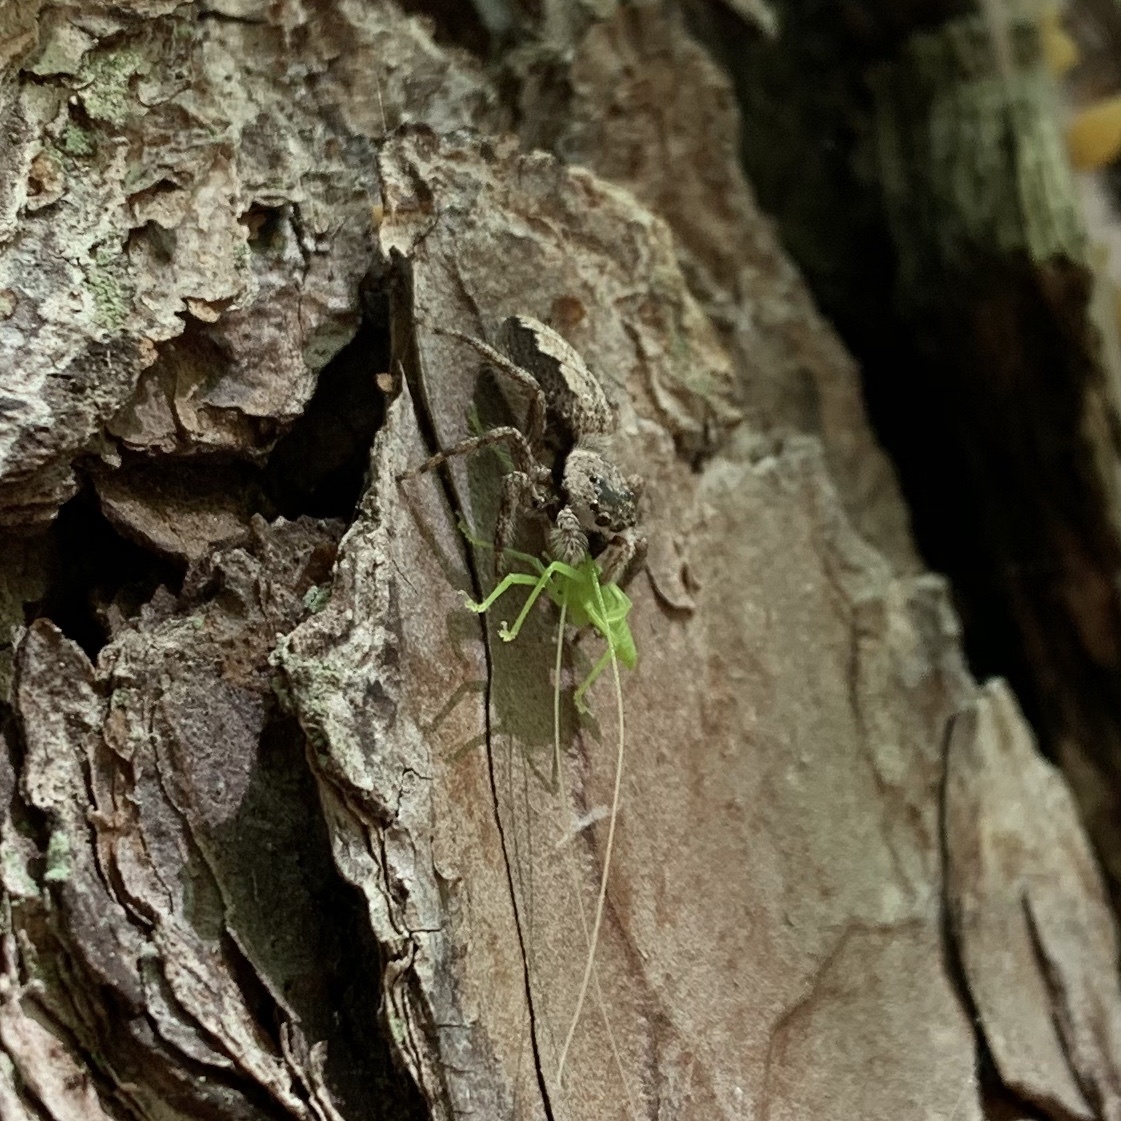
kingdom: Animalia
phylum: Arthropoda
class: Arachnida
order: Araneae
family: Salticidae
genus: Platycryptus
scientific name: Platycryptus undatus
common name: Tan jumping spider
